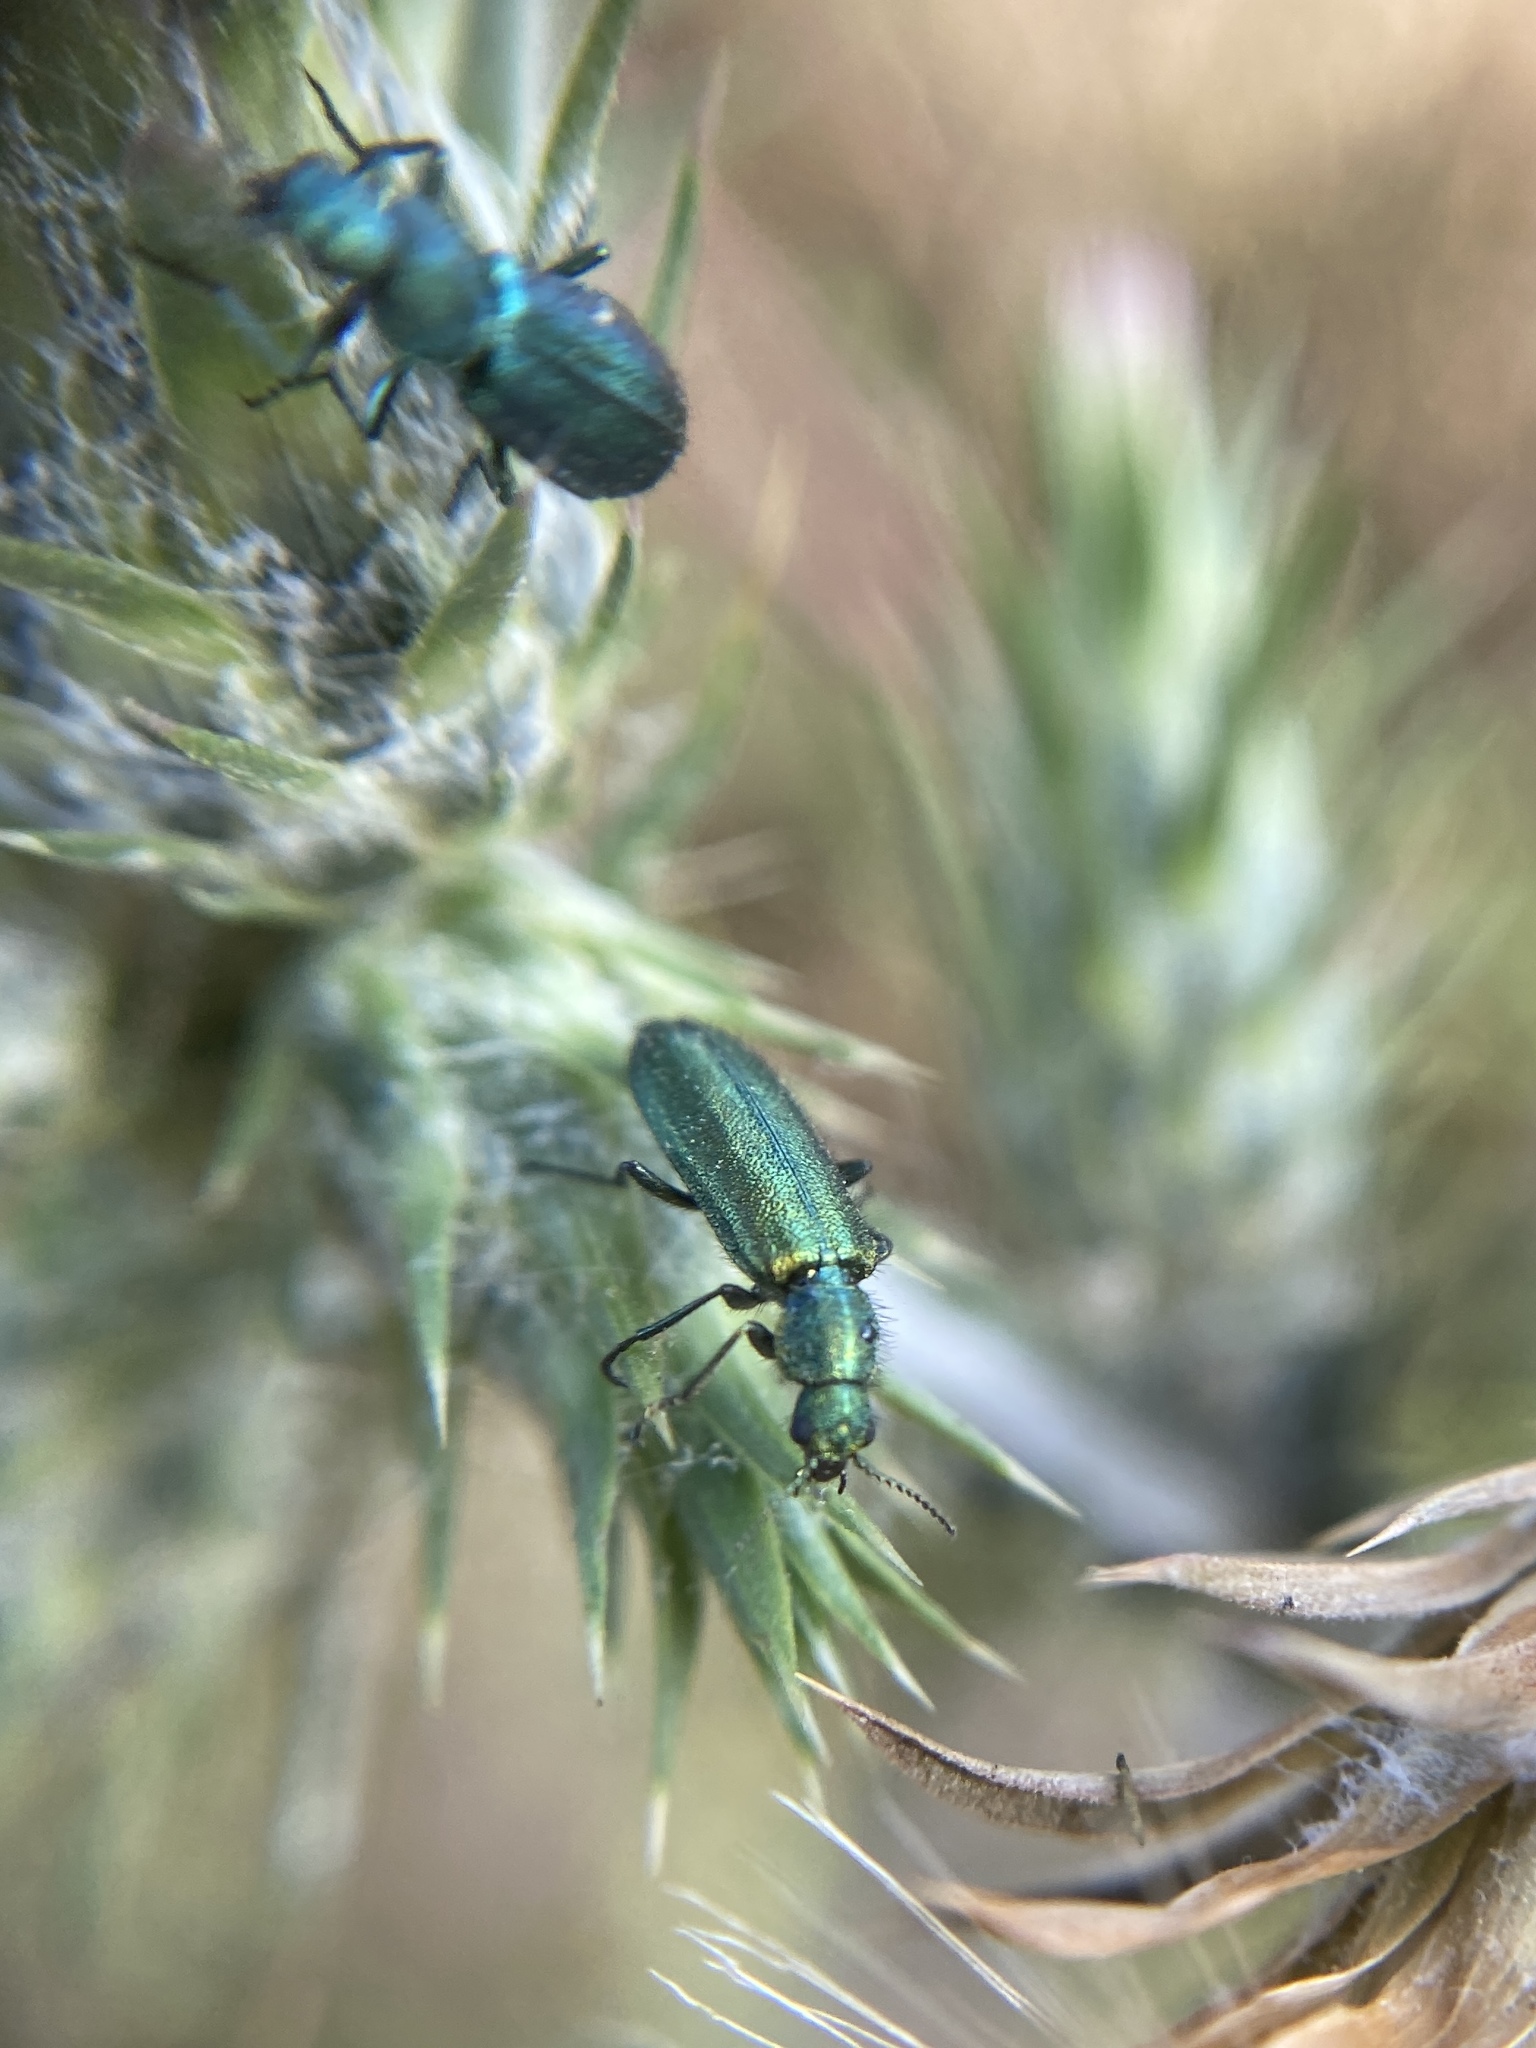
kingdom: Animalia
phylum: Arthropoda
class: Insecta
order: Coleoptera
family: Dasytidae
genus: Psilothrix
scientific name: Psilothrix viridicoerulea
